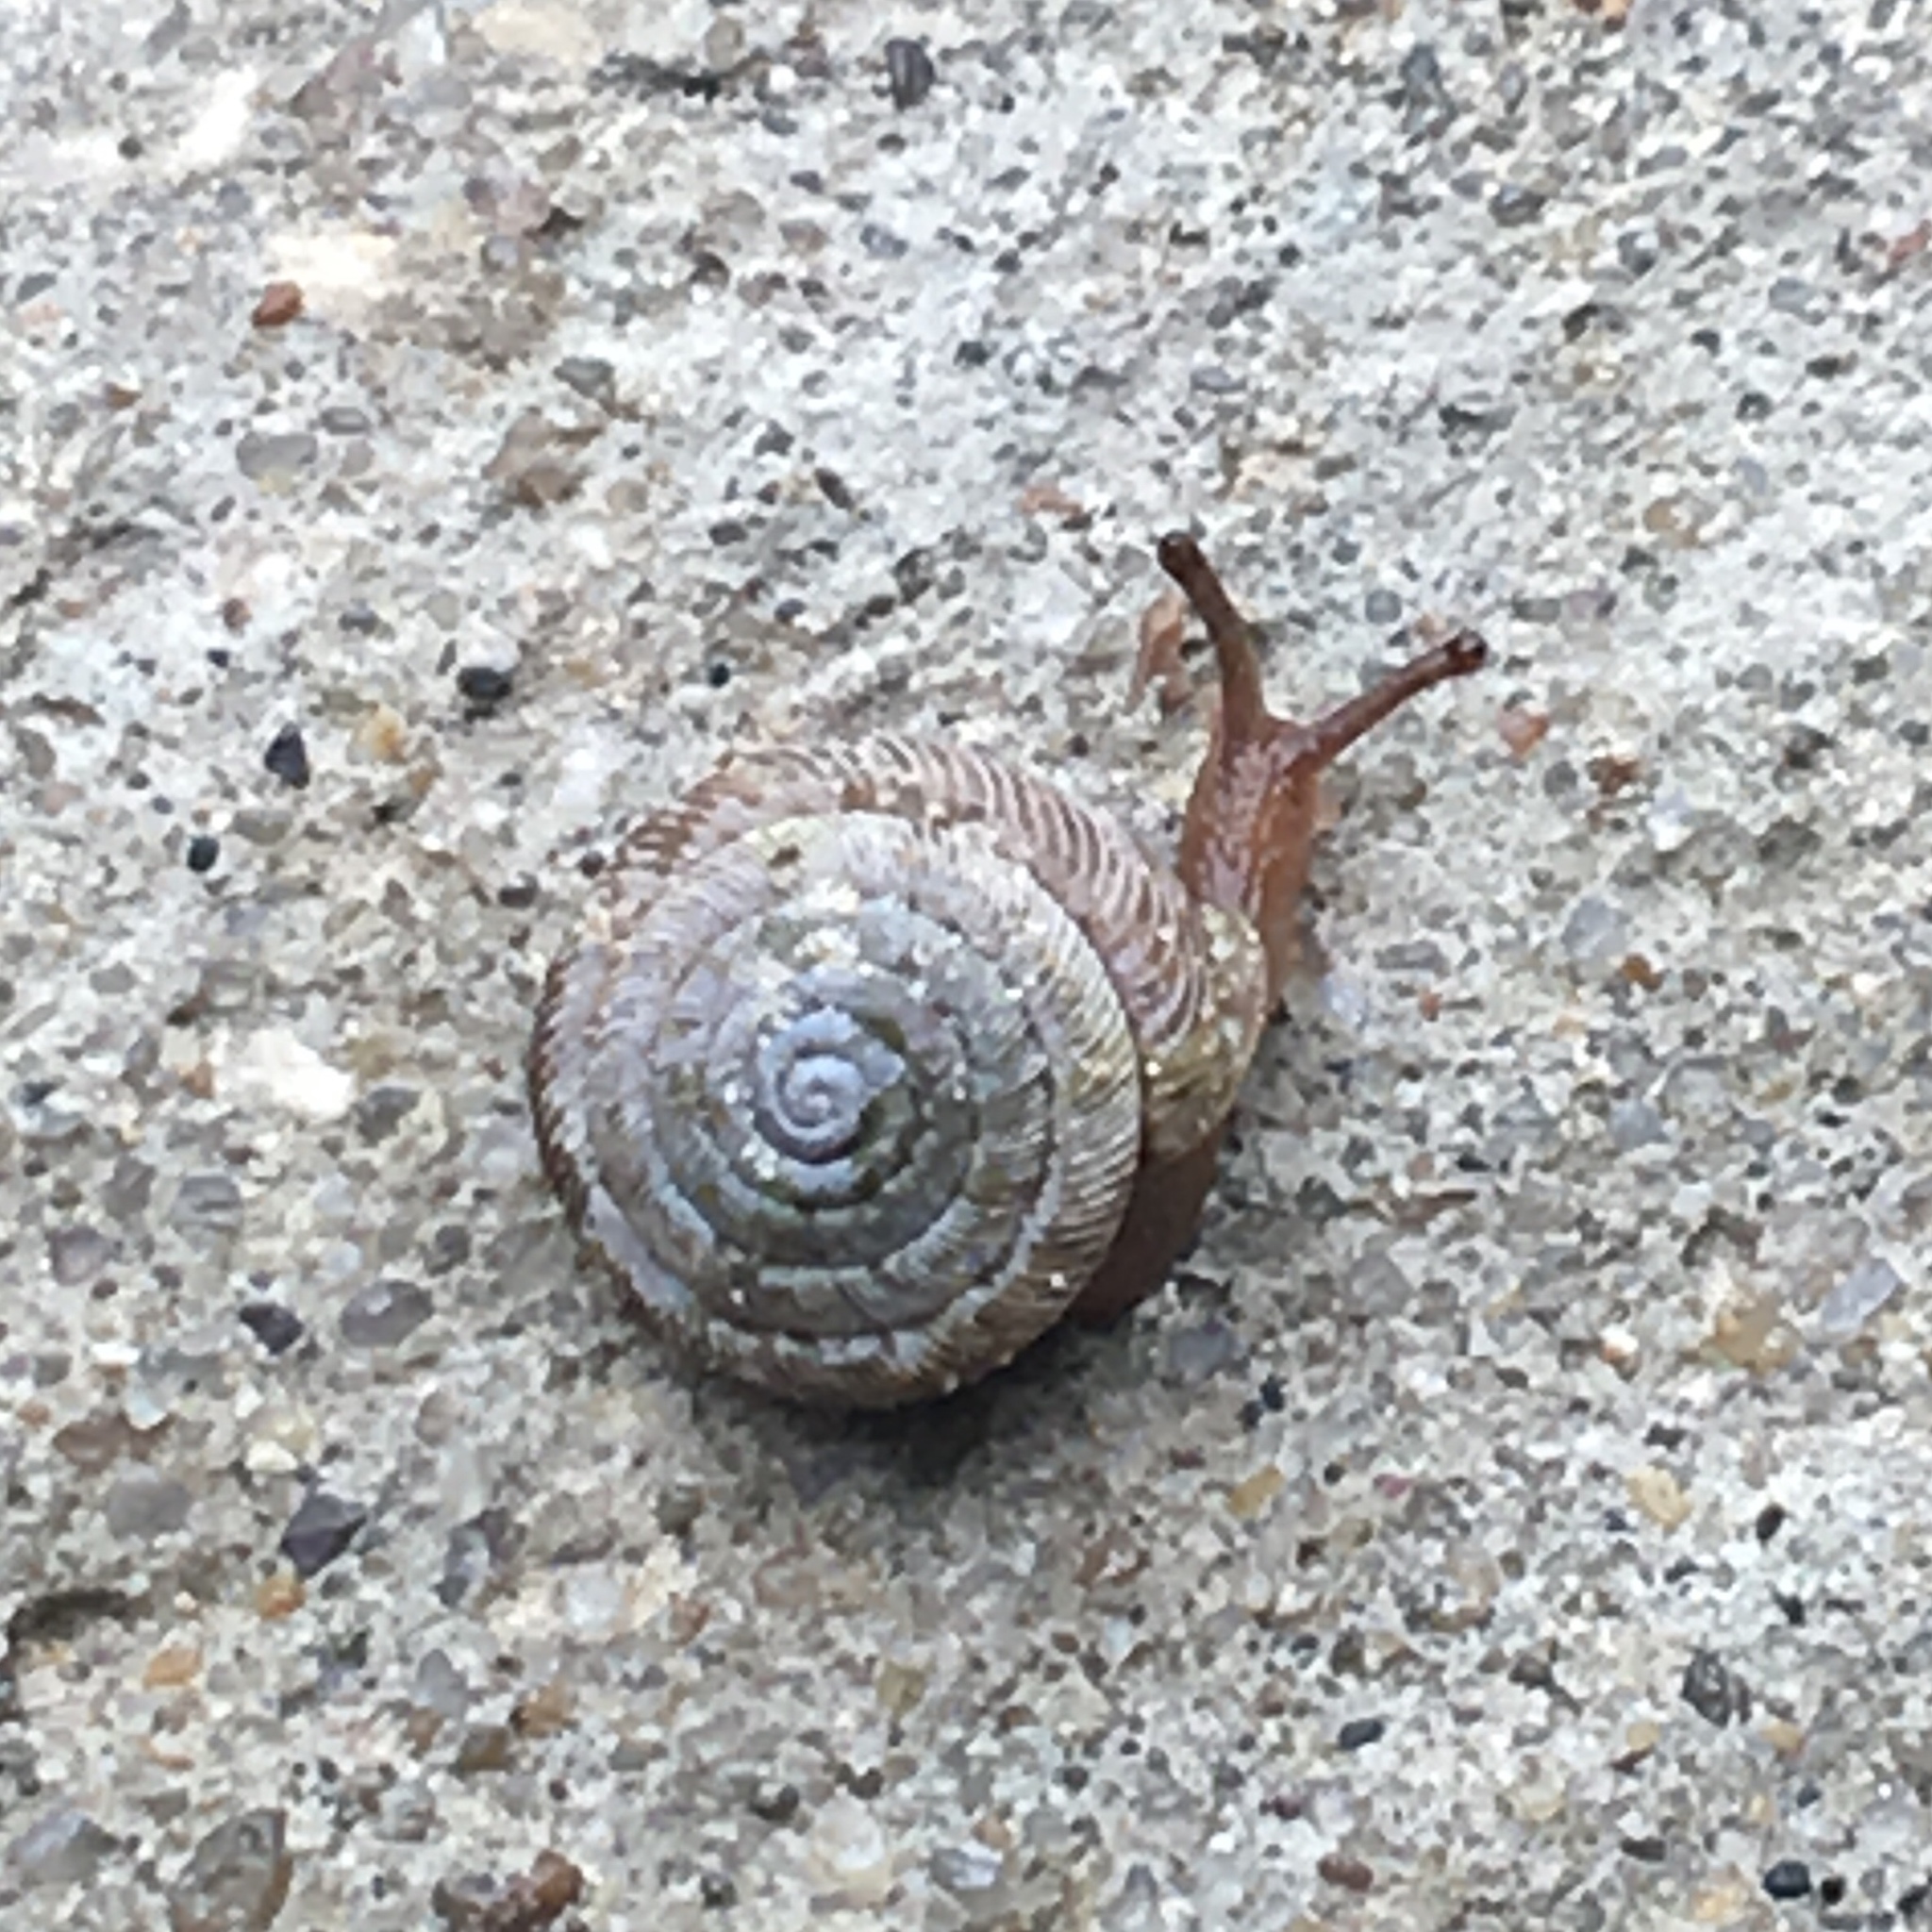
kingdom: Animalia
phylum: Mollusca
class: Gastropoda
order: Stylommatophora
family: Polygyridae
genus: Polygyra
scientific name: Polygyra cereolus
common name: Southern flatcone snail
